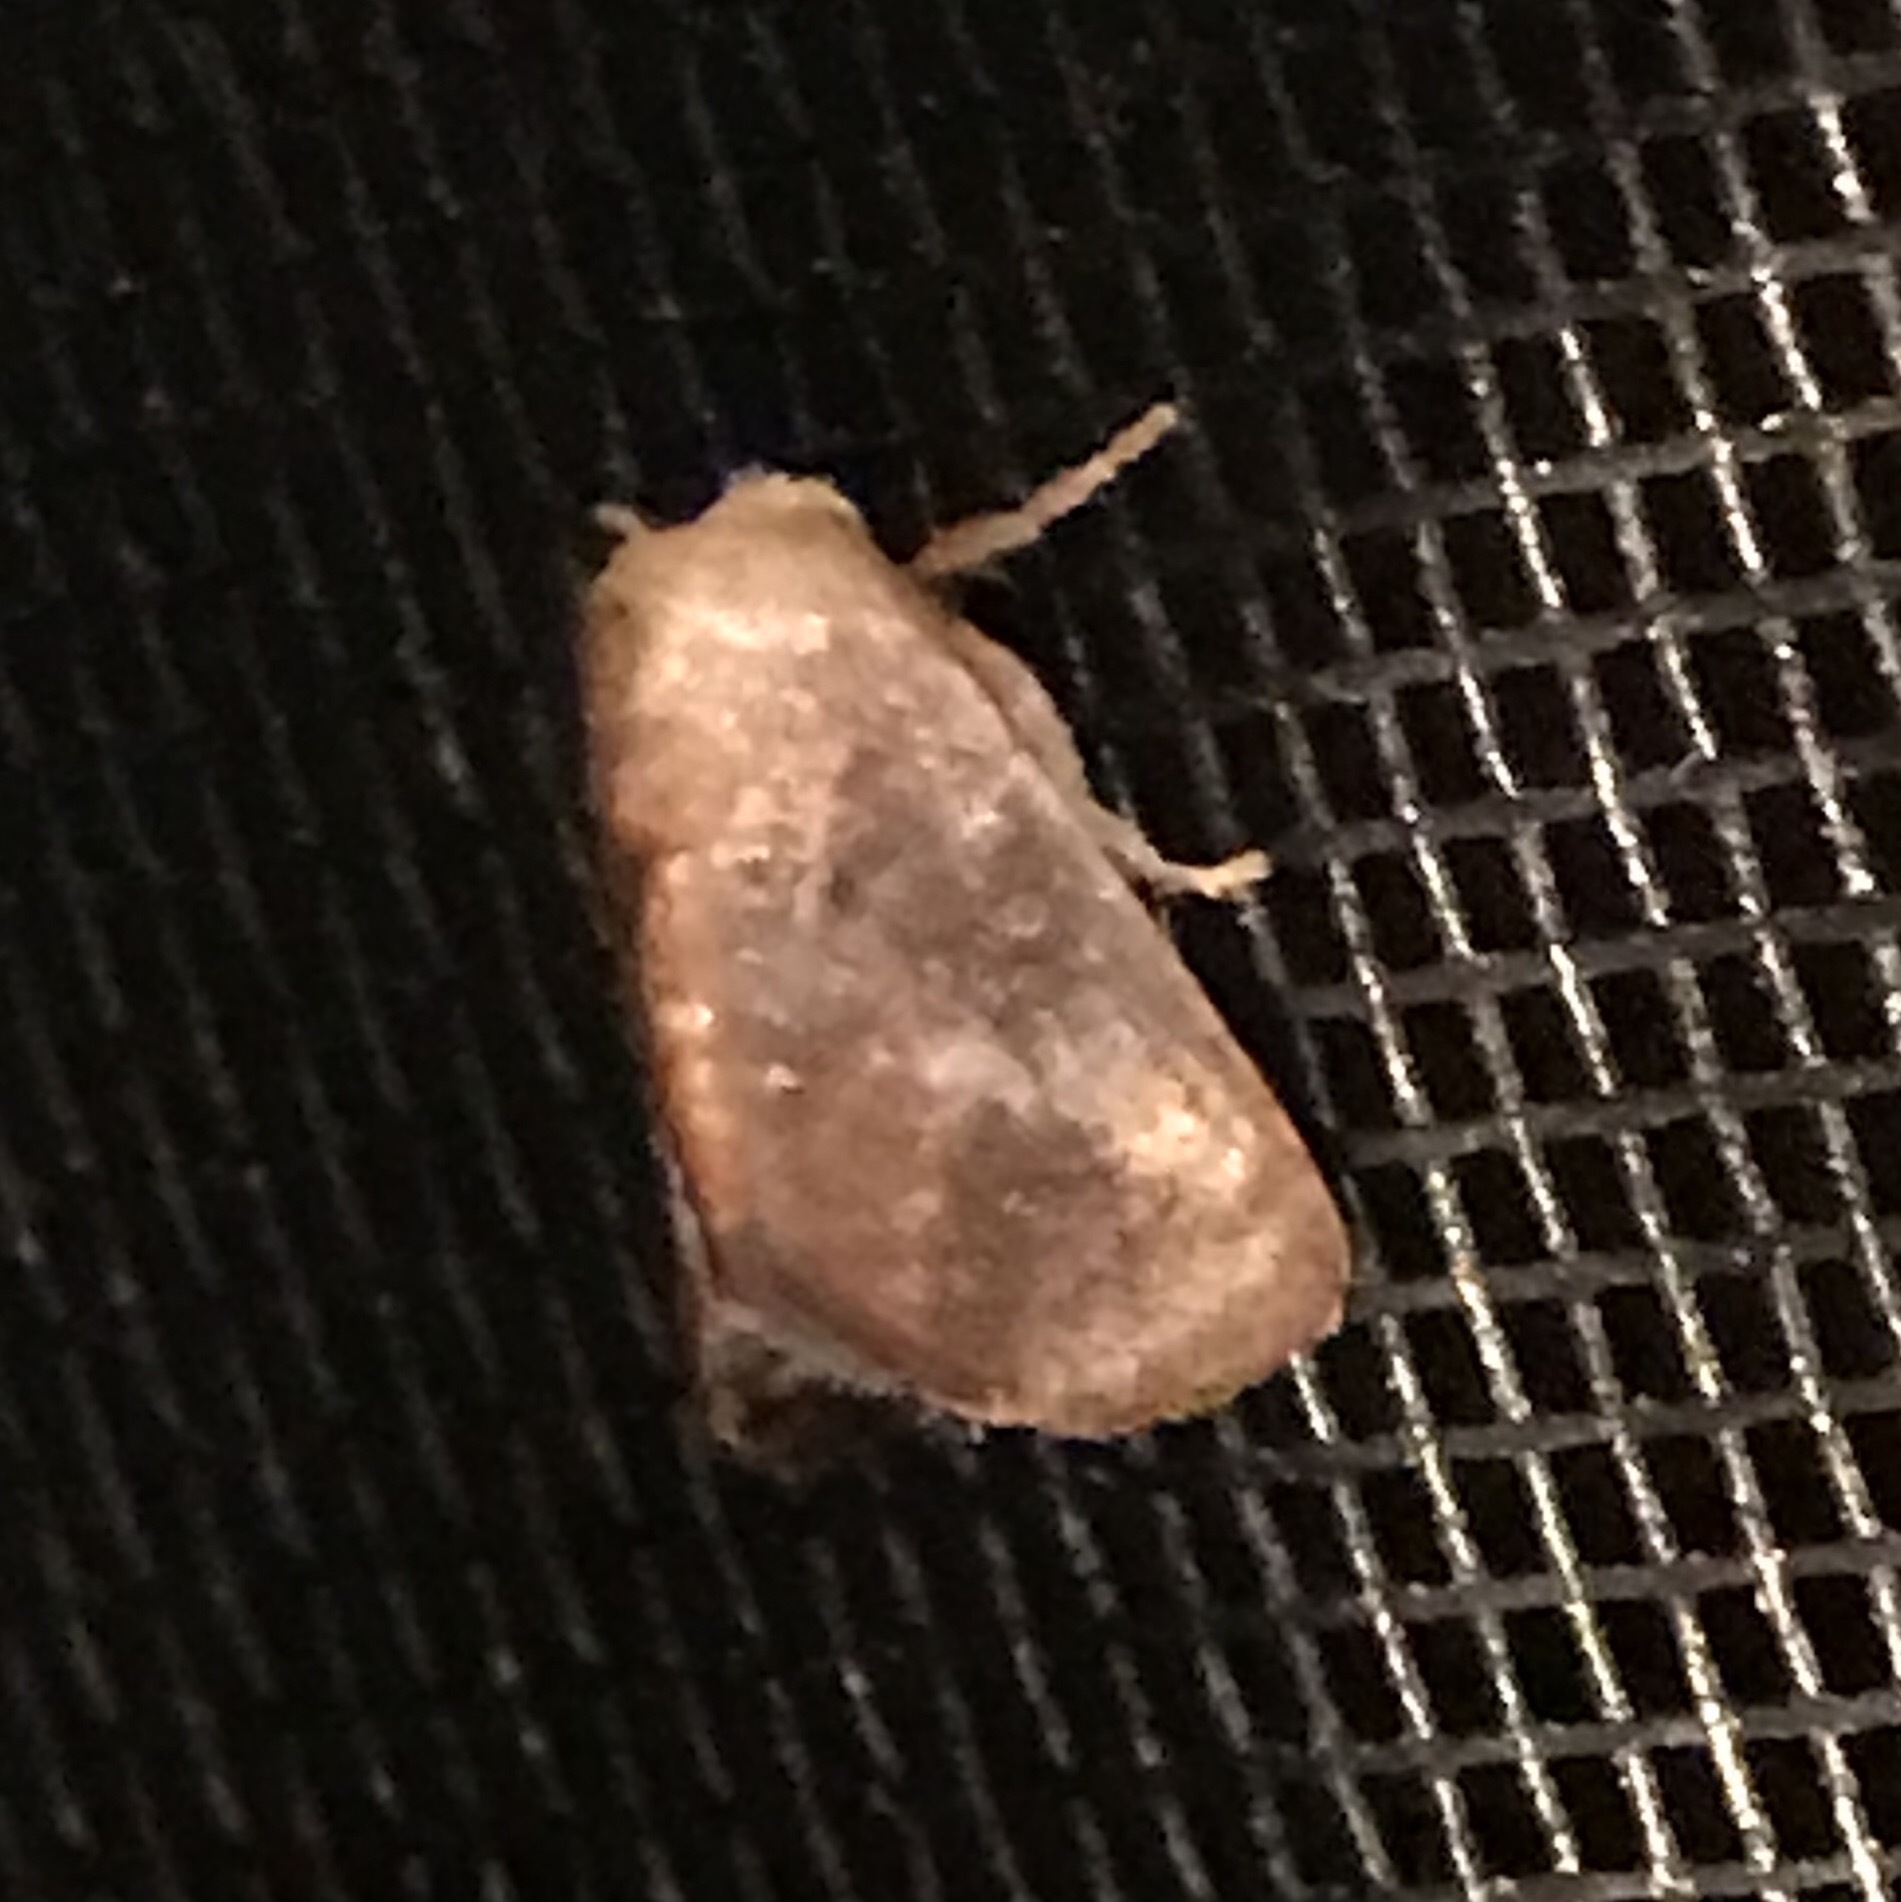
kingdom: Animalia
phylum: Arthropoda
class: Insecta
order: Lepidoptera
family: Limacodidae
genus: Isa
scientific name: Isa textula
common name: Crowned slug moth
